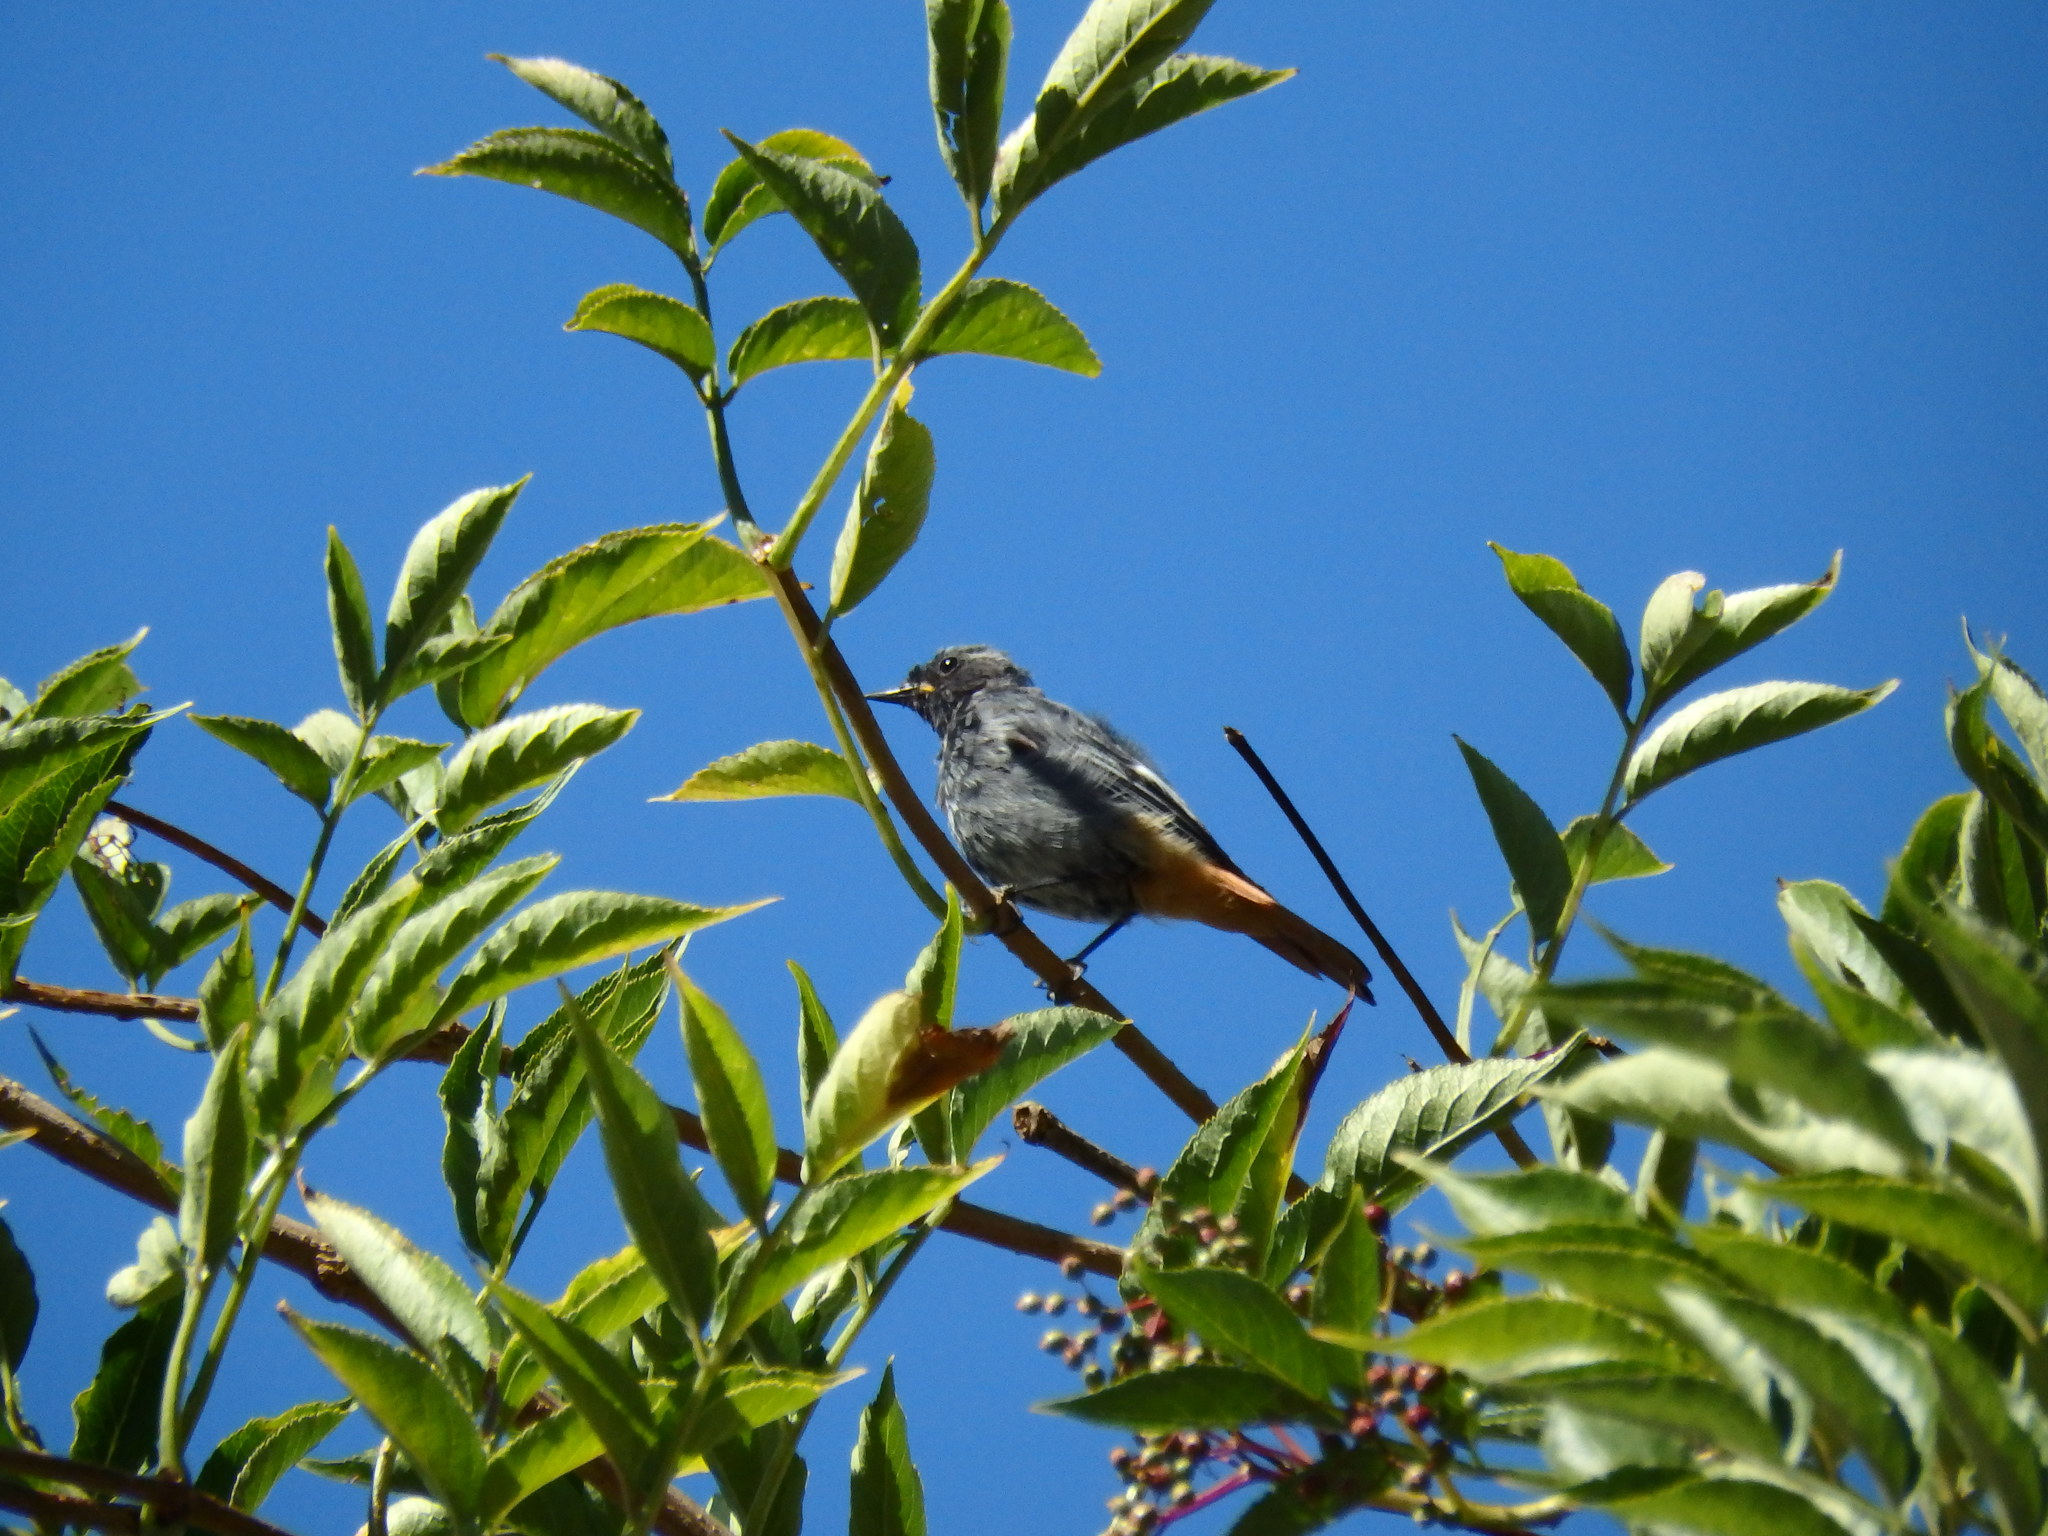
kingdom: Animalia
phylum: Chordata
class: Aves
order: Passeriformes
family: Muscicapidae
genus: Phoenicurus
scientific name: Phoenicurus ochruros
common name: Black redstart
